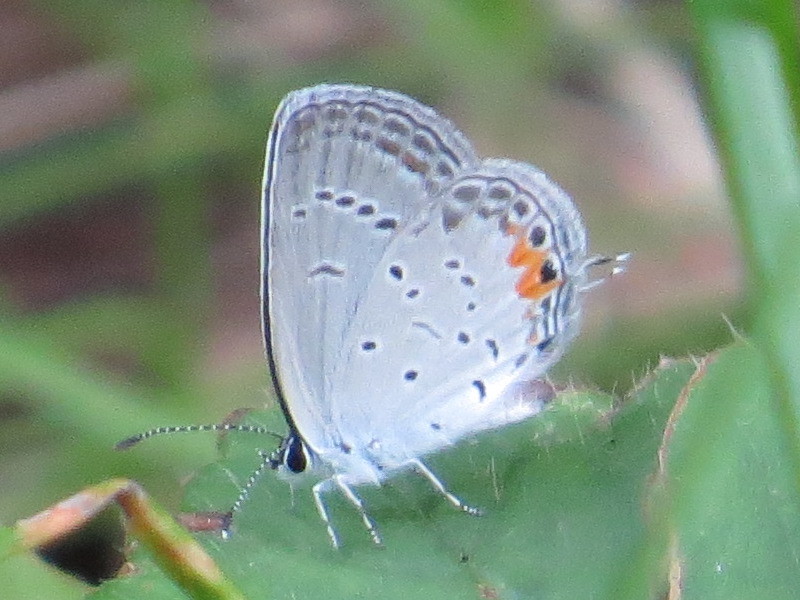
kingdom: Animalia
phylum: Arthropoda
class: Insecta
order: Lepidoptera
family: Lycaenidae
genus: Elkalyce
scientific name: Elkalyce comyntas
